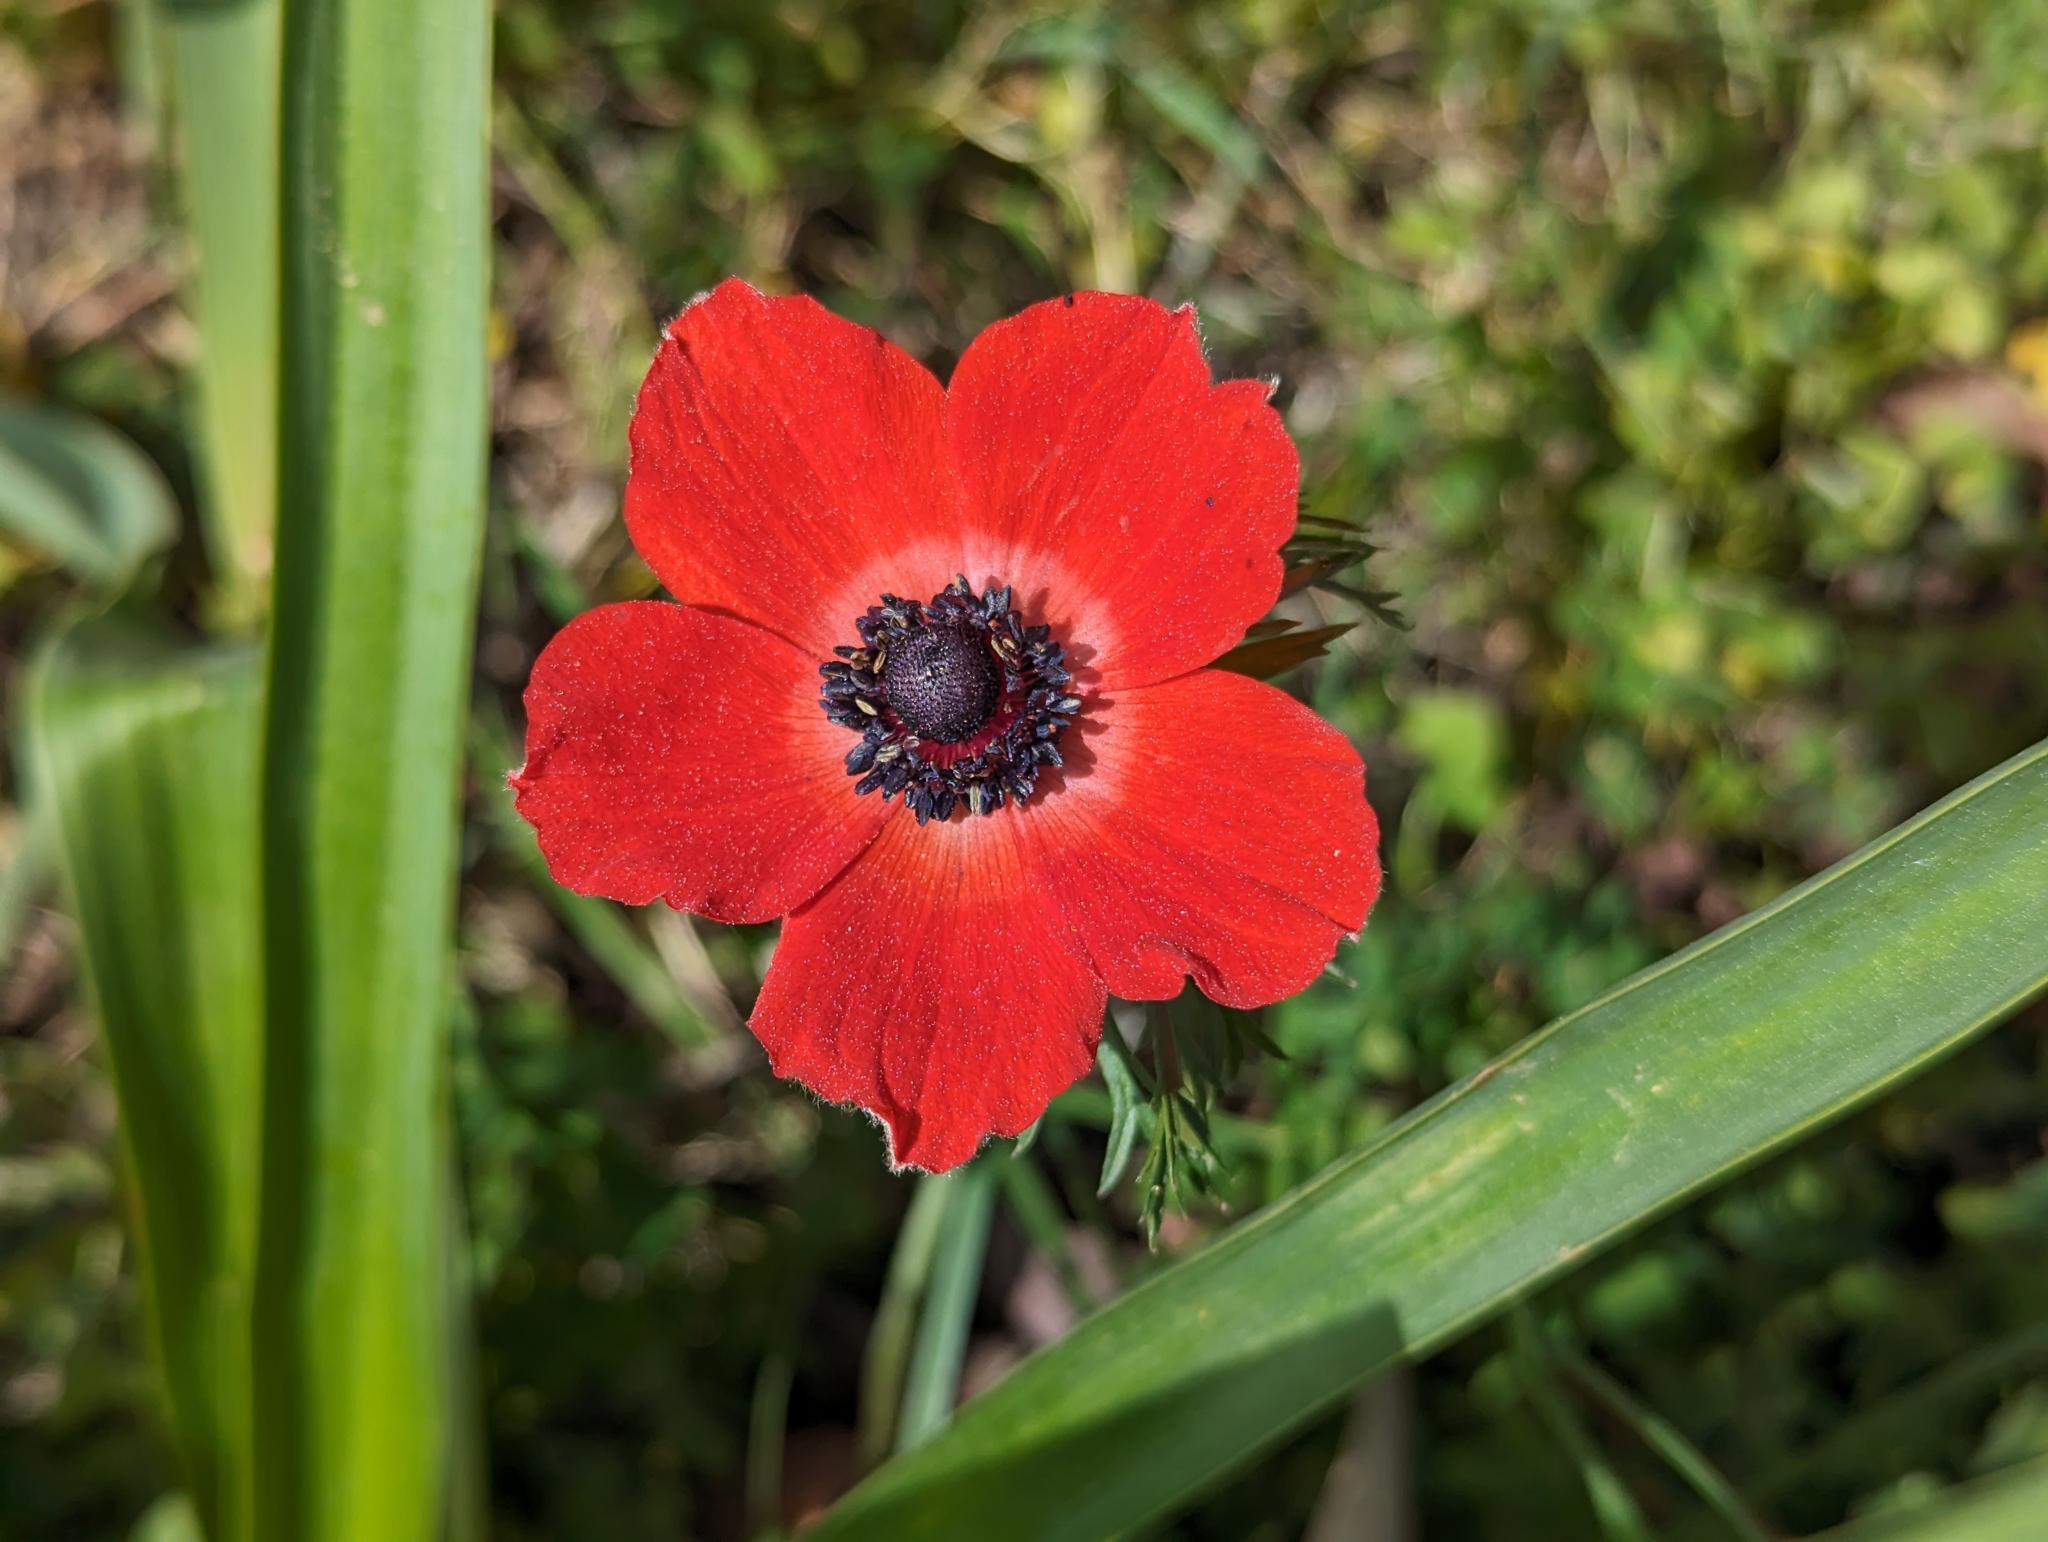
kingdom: Plantae
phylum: Tracheophyta
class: Magnoliopsida
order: Ranunculales
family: Ranunculaceae
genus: Anemone
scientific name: Anemone coronaria
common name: Poppy anemone
